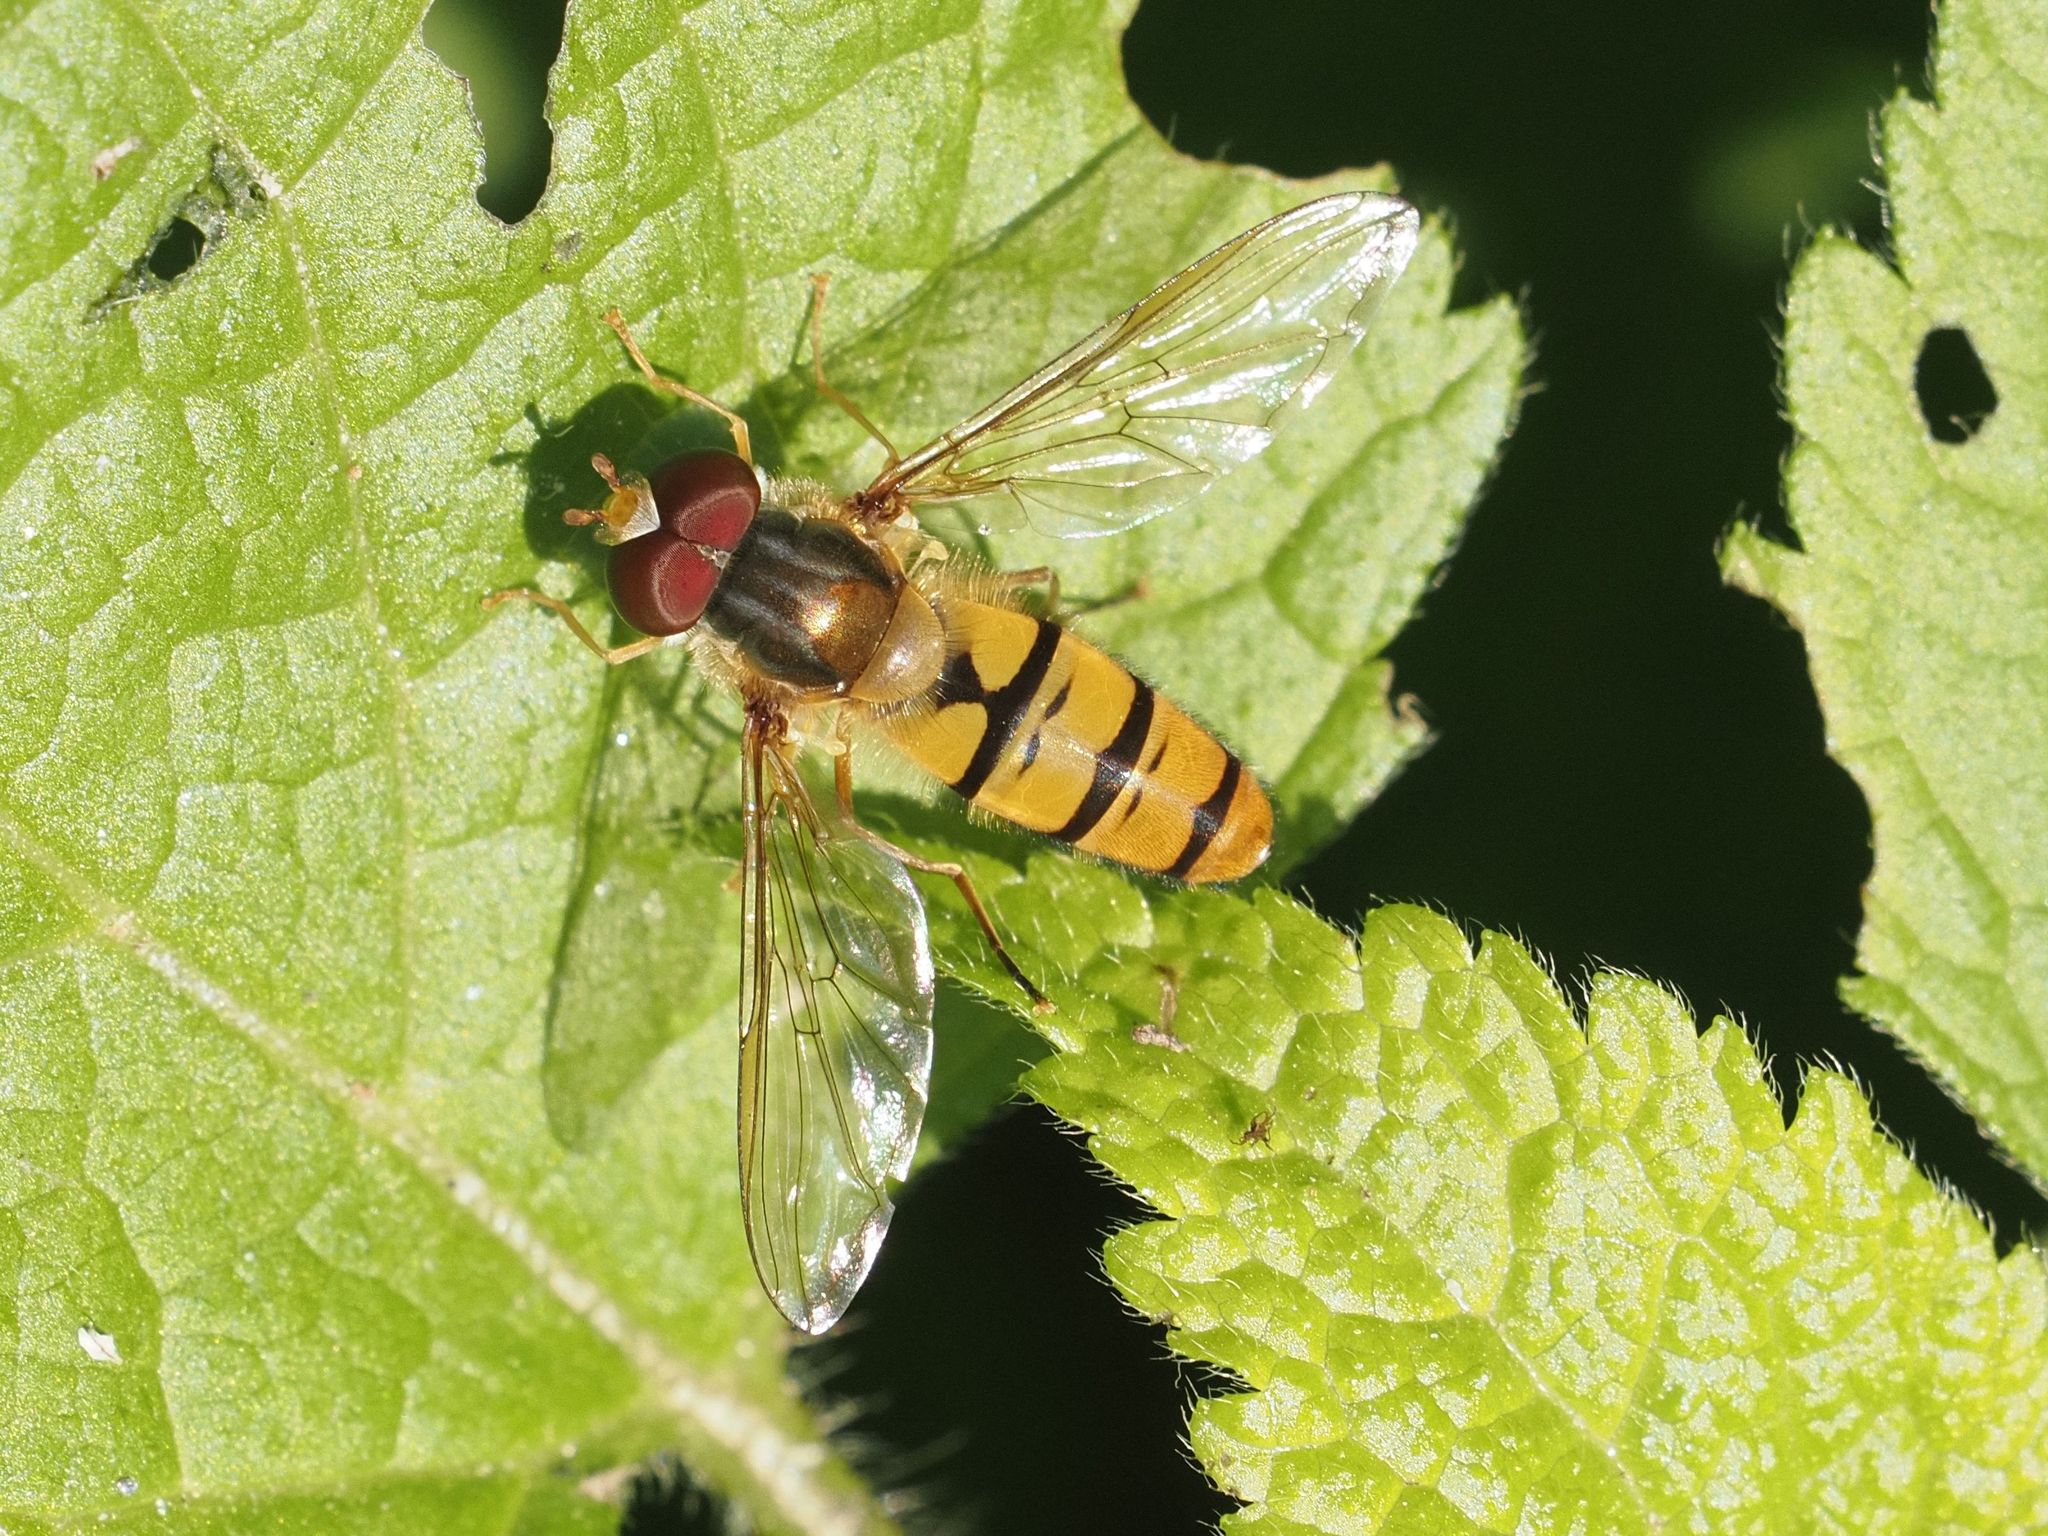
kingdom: Animalia
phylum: Arthropoda
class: Insecta
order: Diptera
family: Syrphidae
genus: Episyrphus
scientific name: Episyrphus balteatus
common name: Marmalade hoverfly
